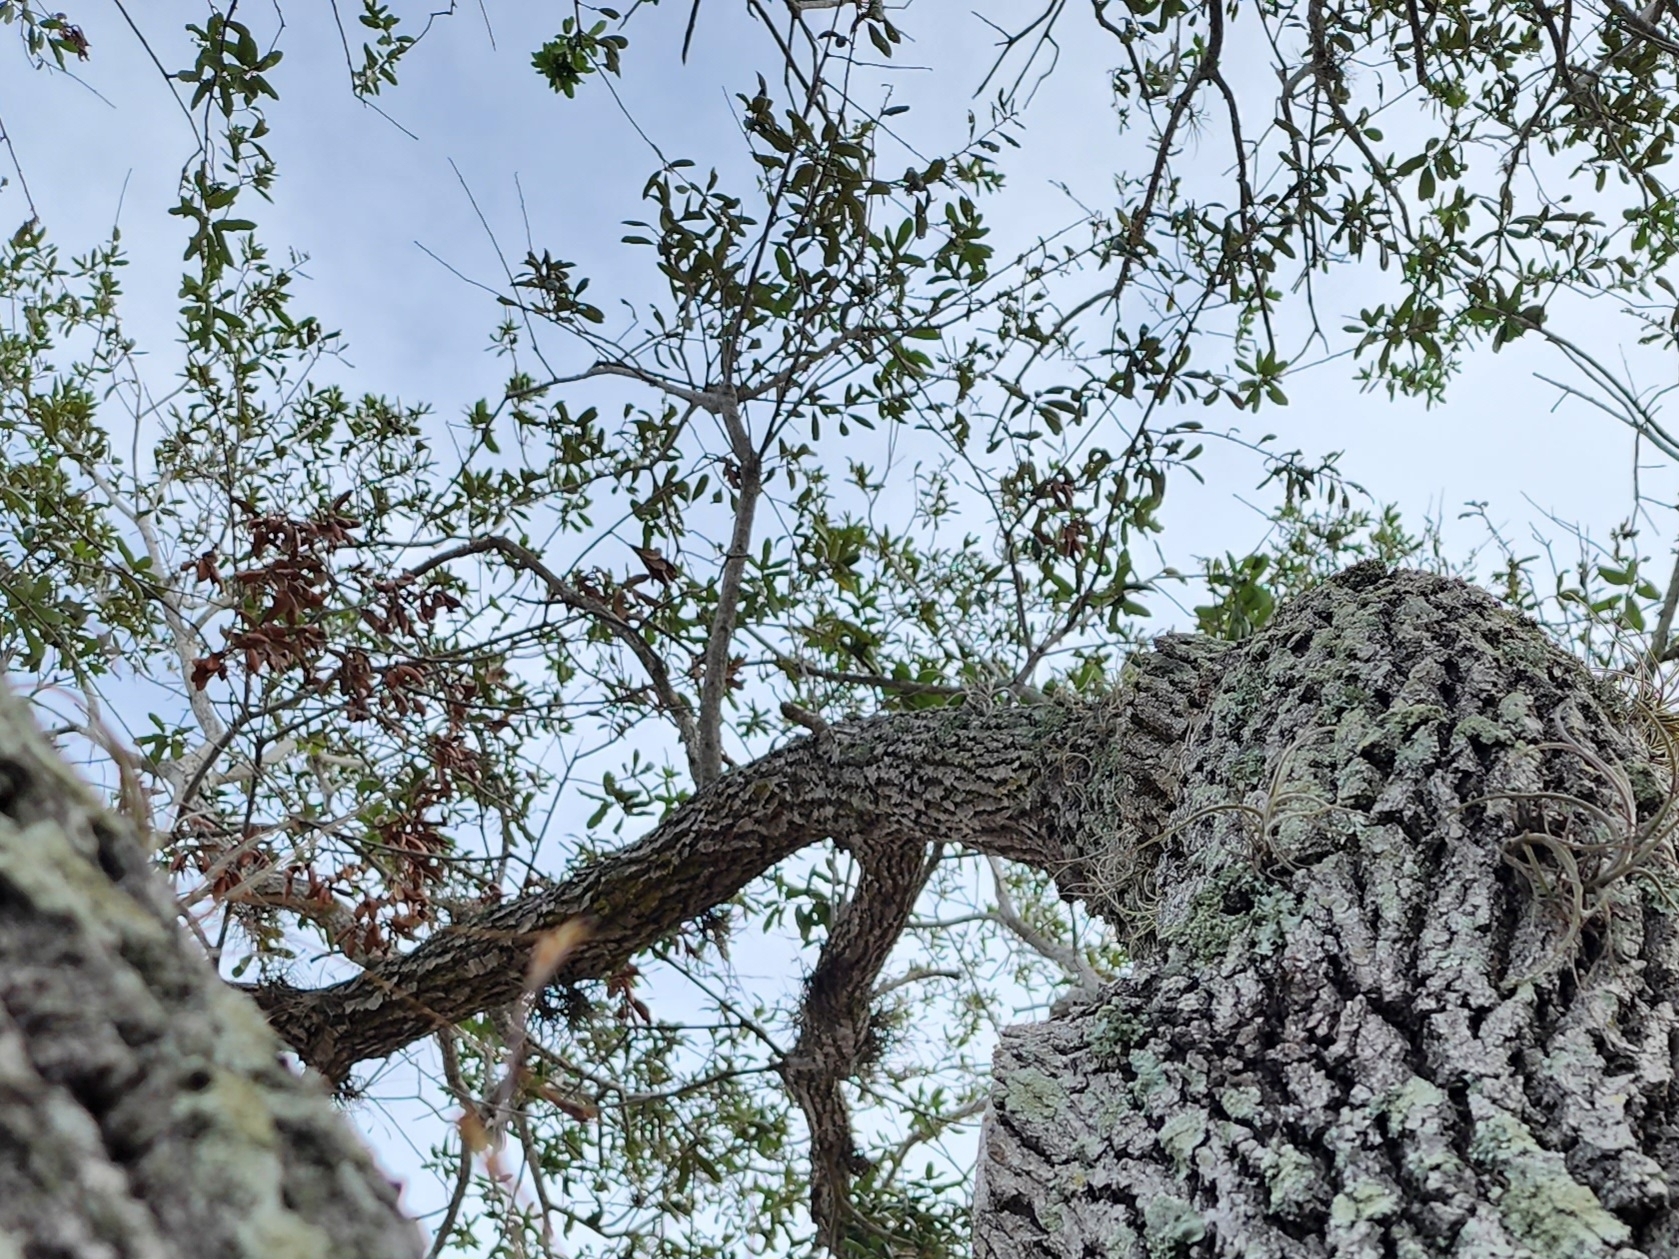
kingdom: Plantae
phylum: Tracheophyta
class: Magnoliopsida
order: Fagales
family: Fagaceae
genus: Quercus
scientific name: Quercus virginiana
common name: Southern live oak
